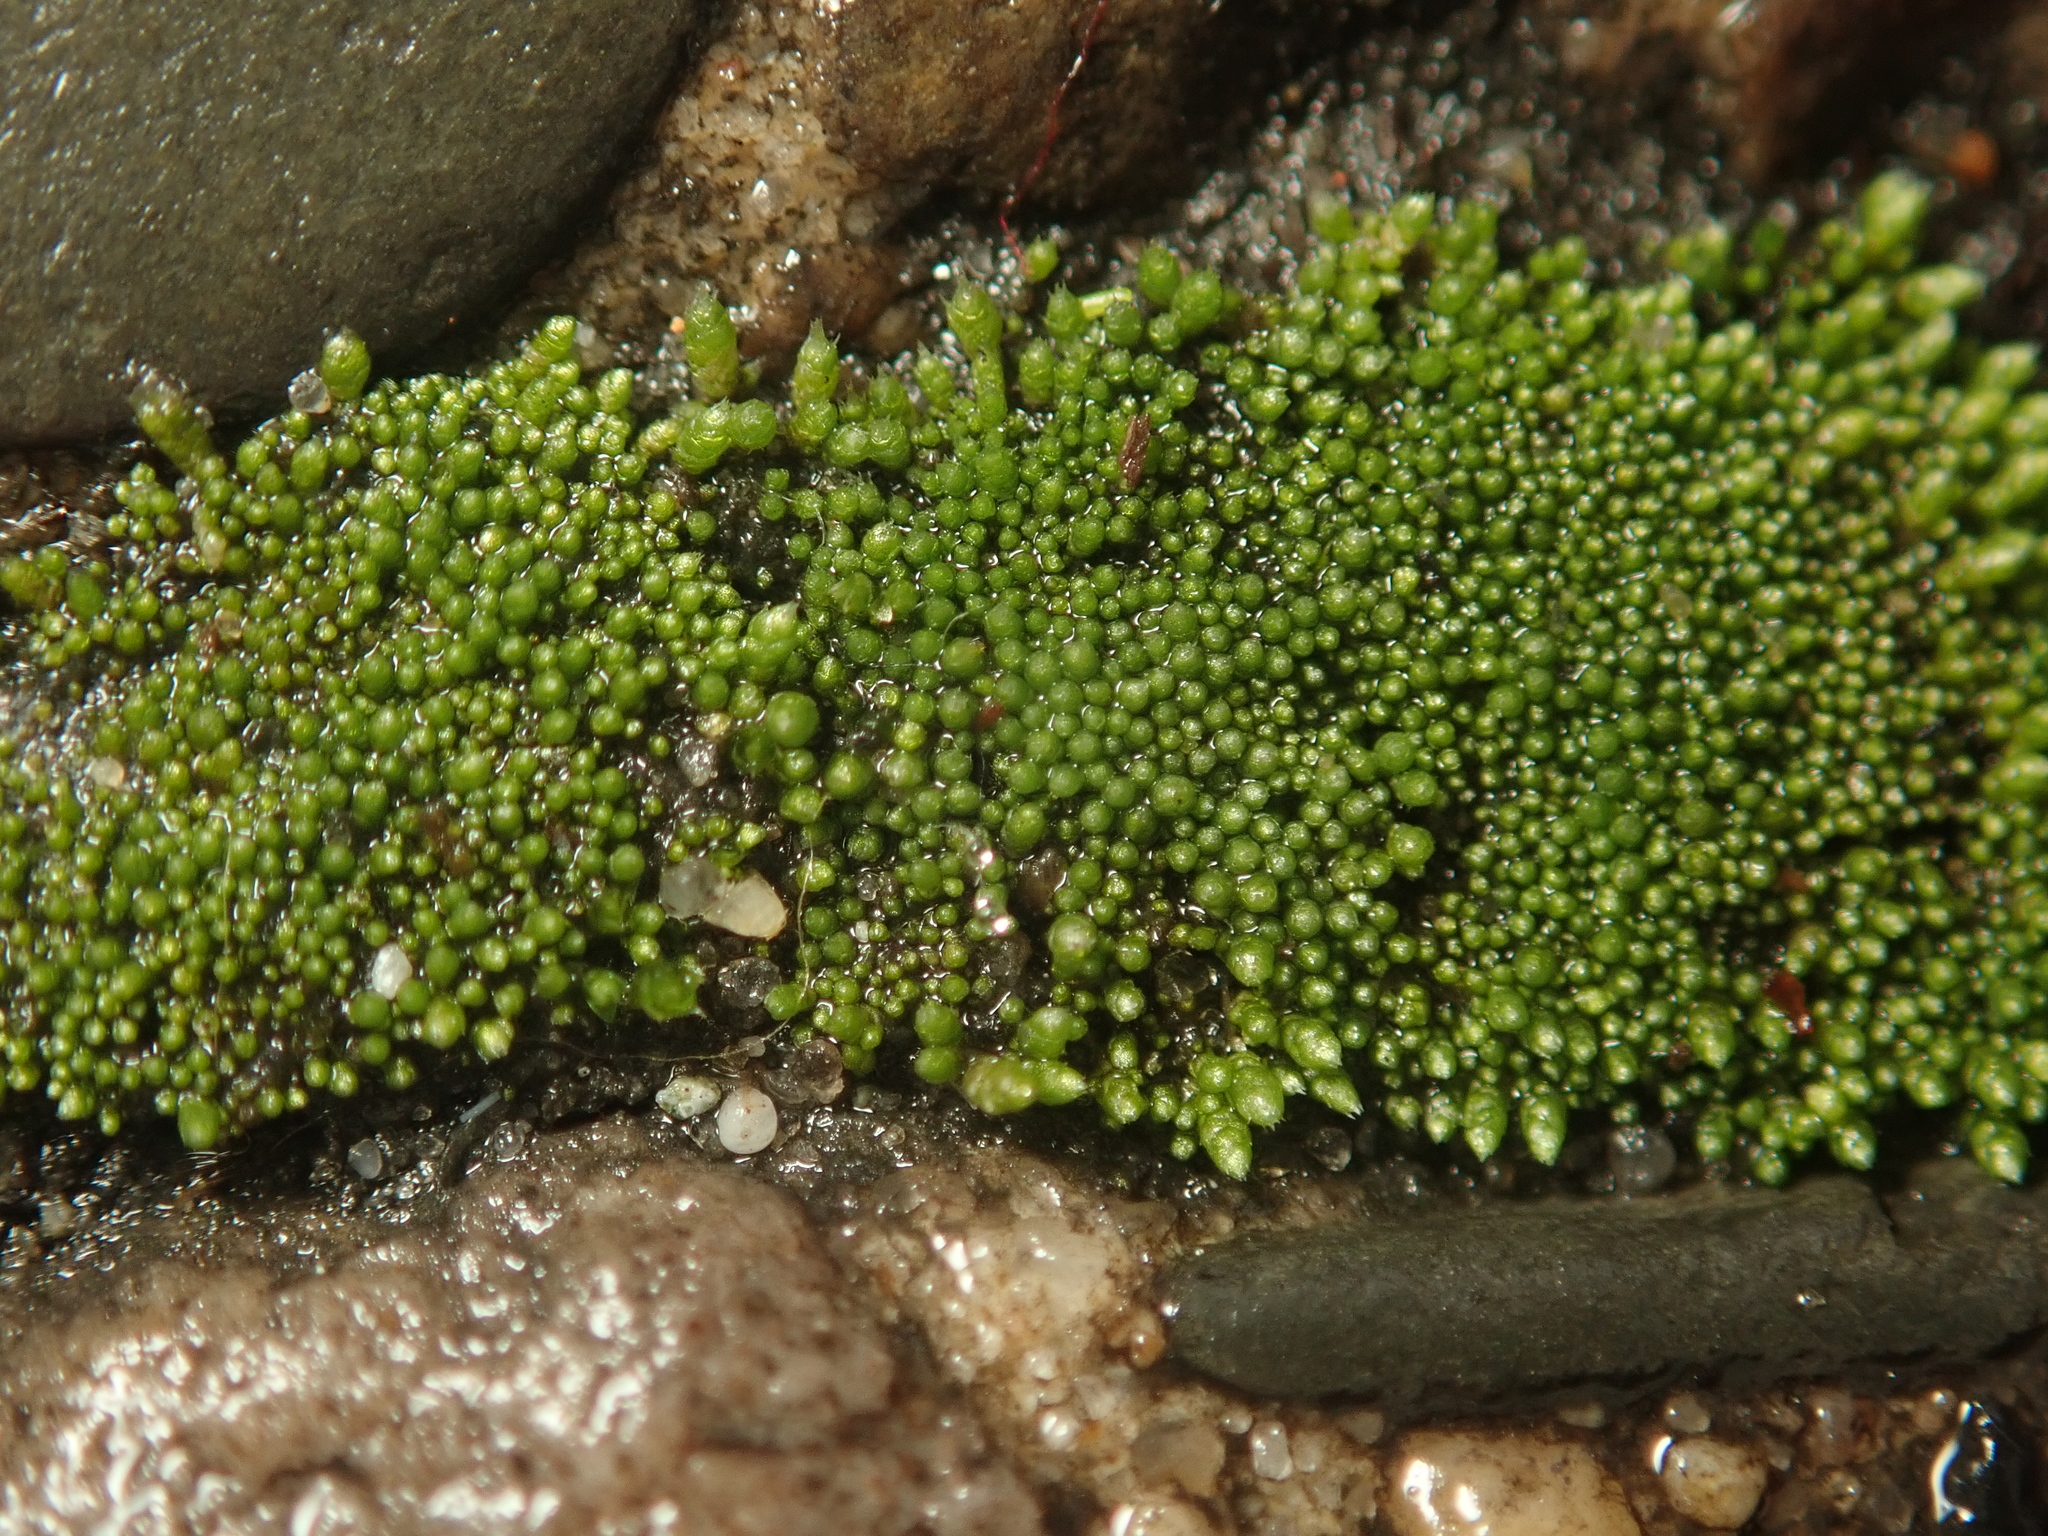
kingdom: Plantae
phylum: Bryophyta
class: Bryopsida
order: Bryales
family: Bryaceae
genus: Bryum
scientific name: Bryum argenteum
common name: Silver-moss
